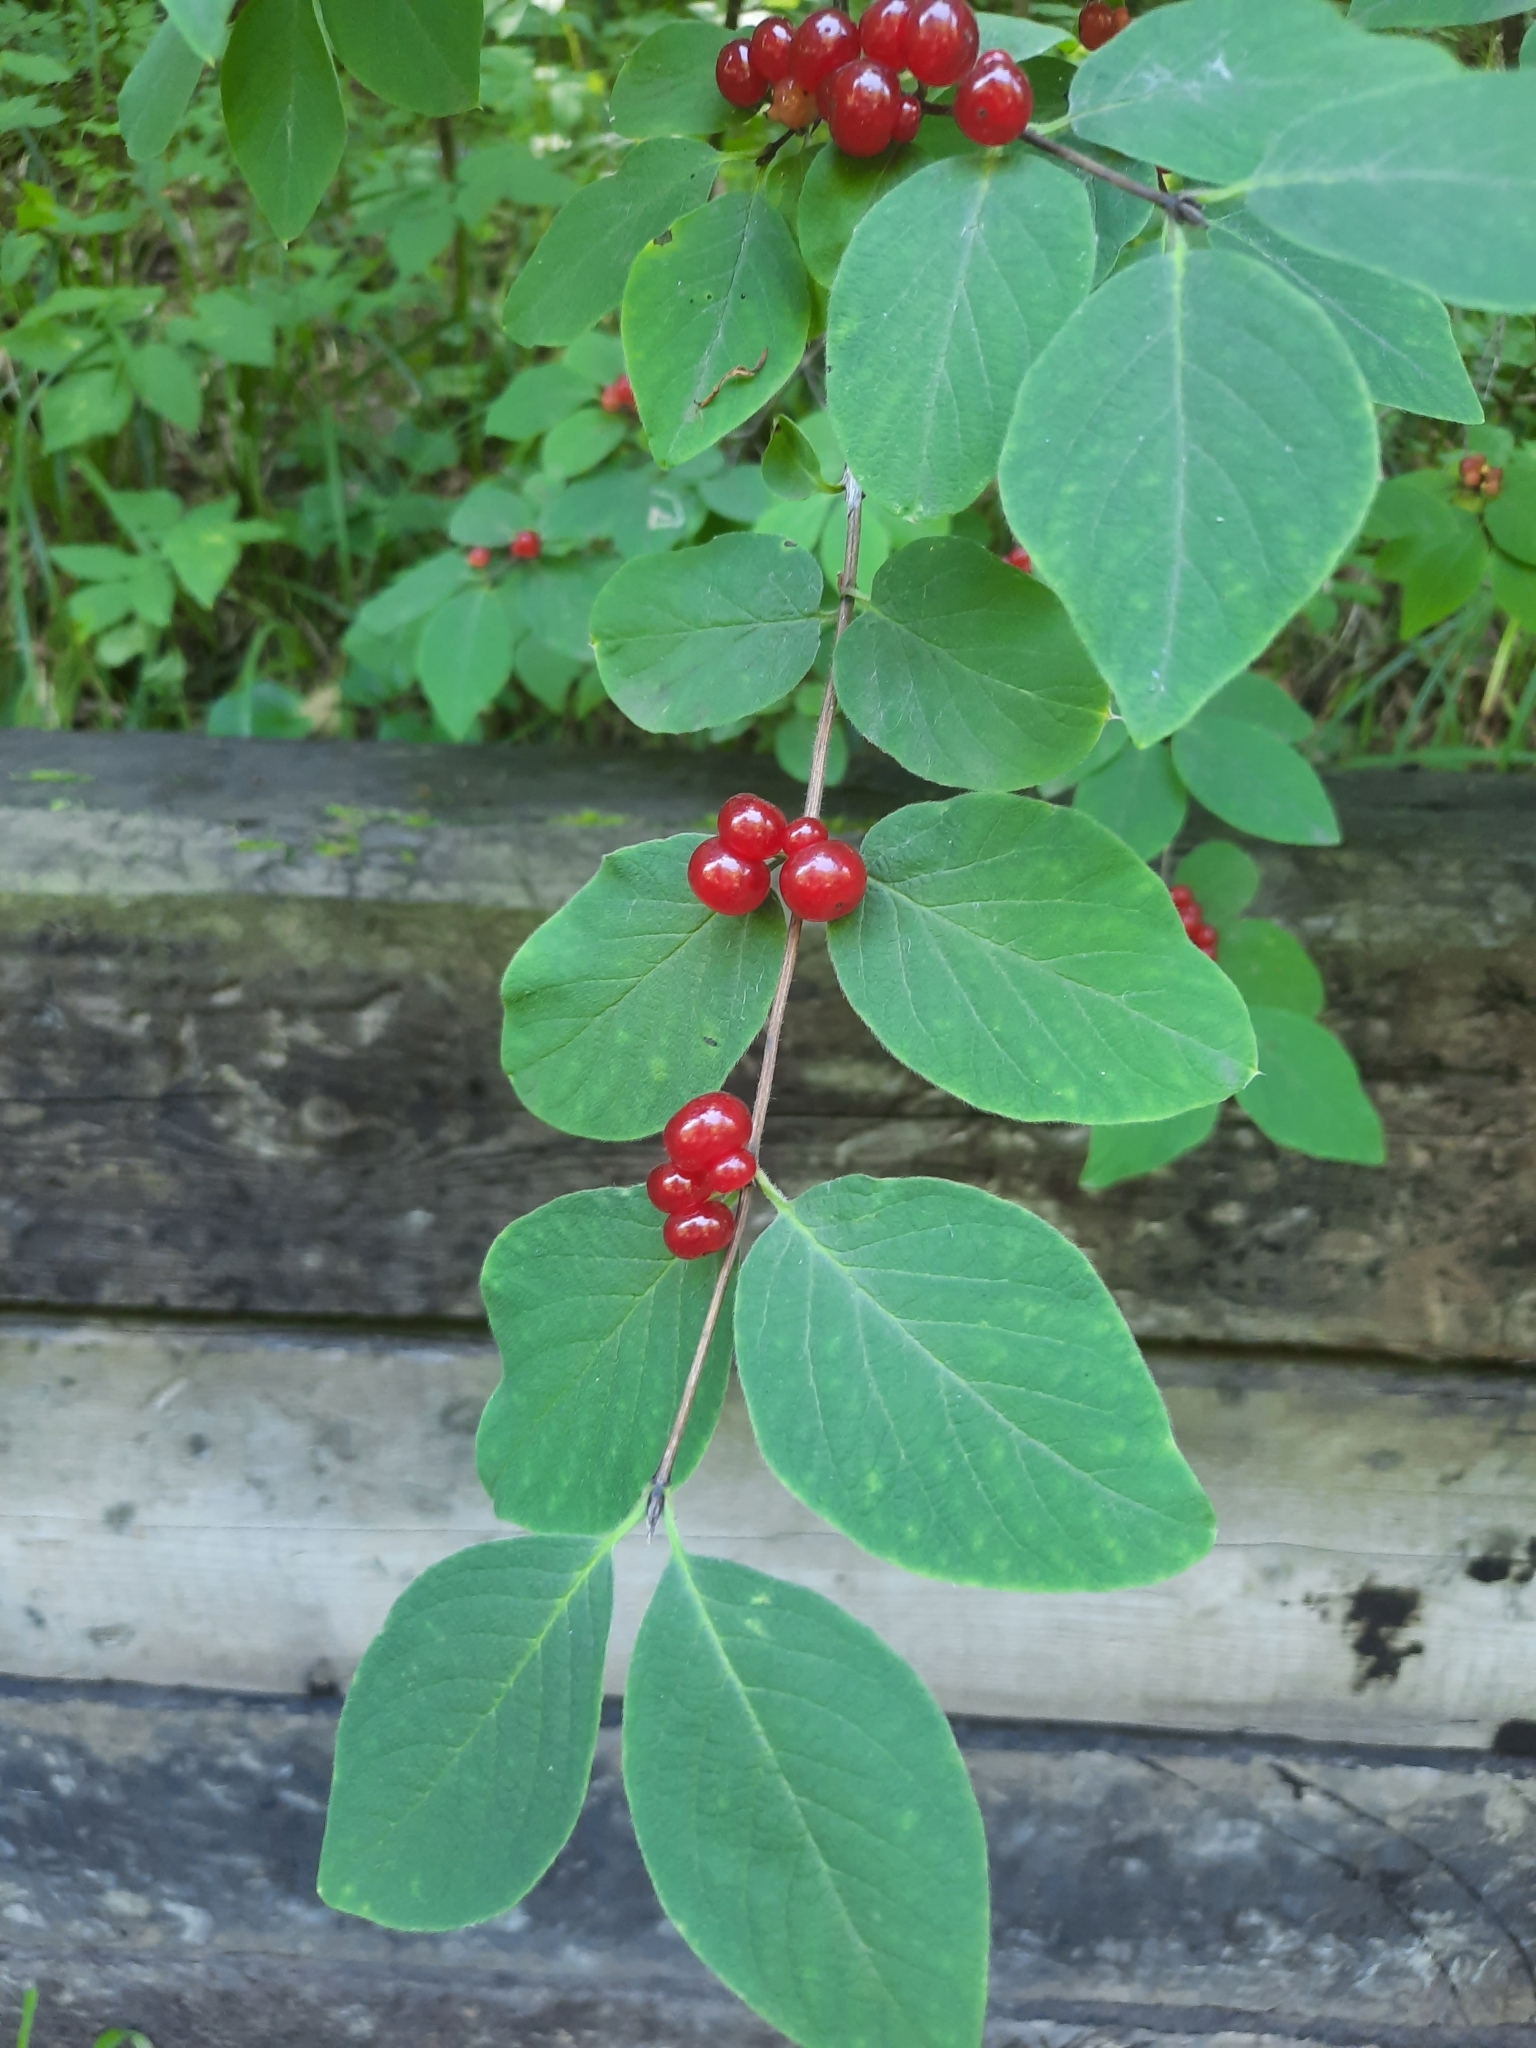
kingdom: Plantae
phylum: Tracheophyta
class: Magnoliopsida
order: Dipsacales
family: Caprifoliaceae
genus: Lonicera
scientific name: Lonicera xylosteum
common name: Fly honeysuckle
